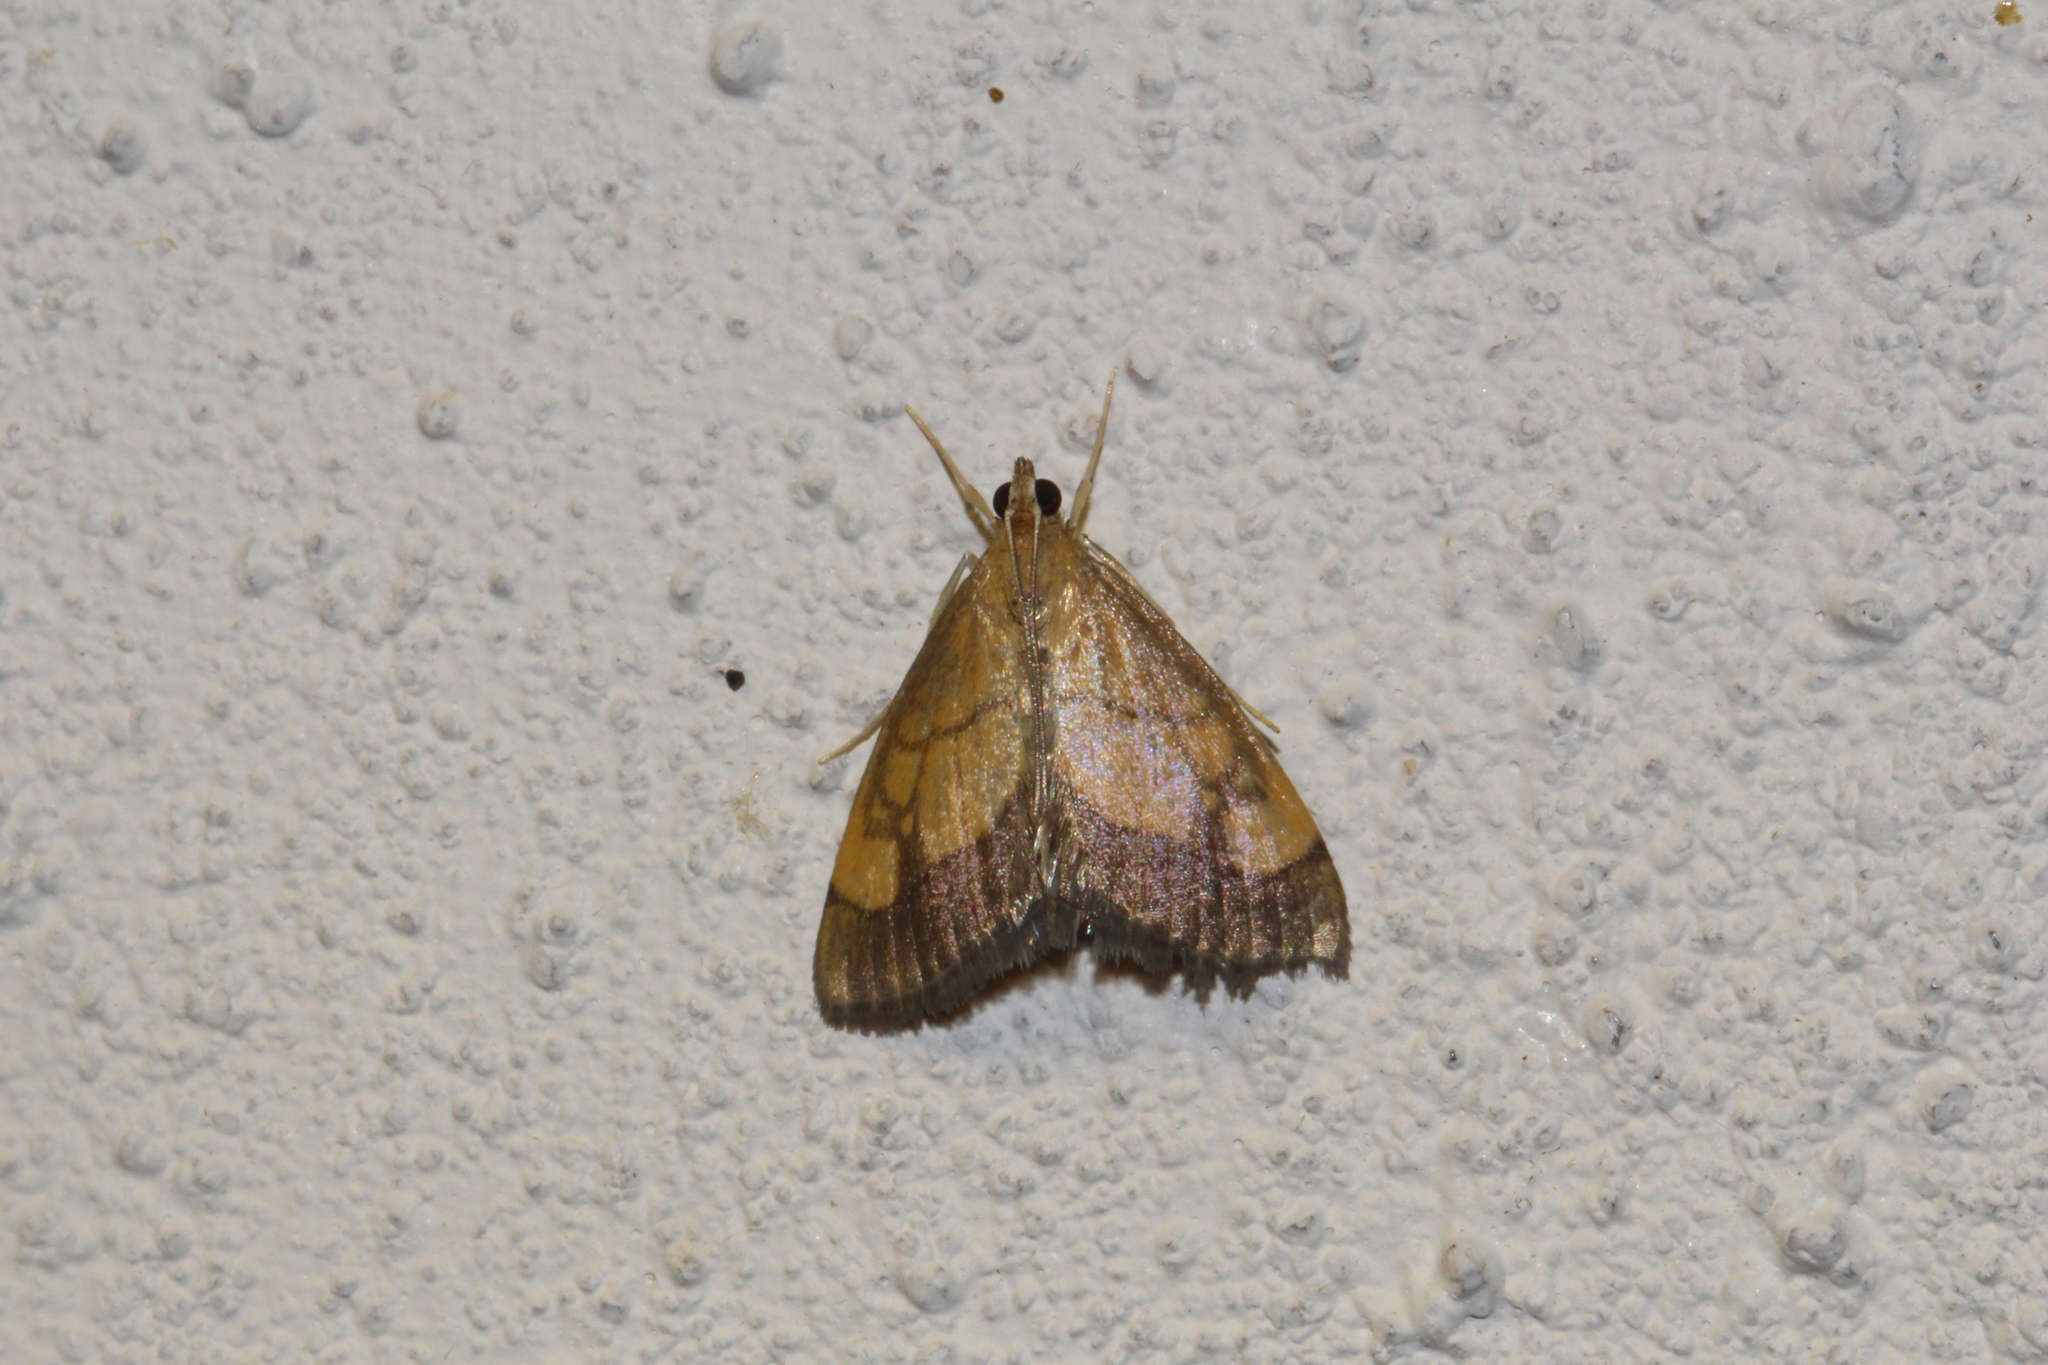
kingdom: Animalia
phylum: Arthropoda
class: Insecta
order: Lepidoptera
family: Crambidae
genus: Evergestis
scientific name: Evergestis limbata
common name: Dark bordered pearl
